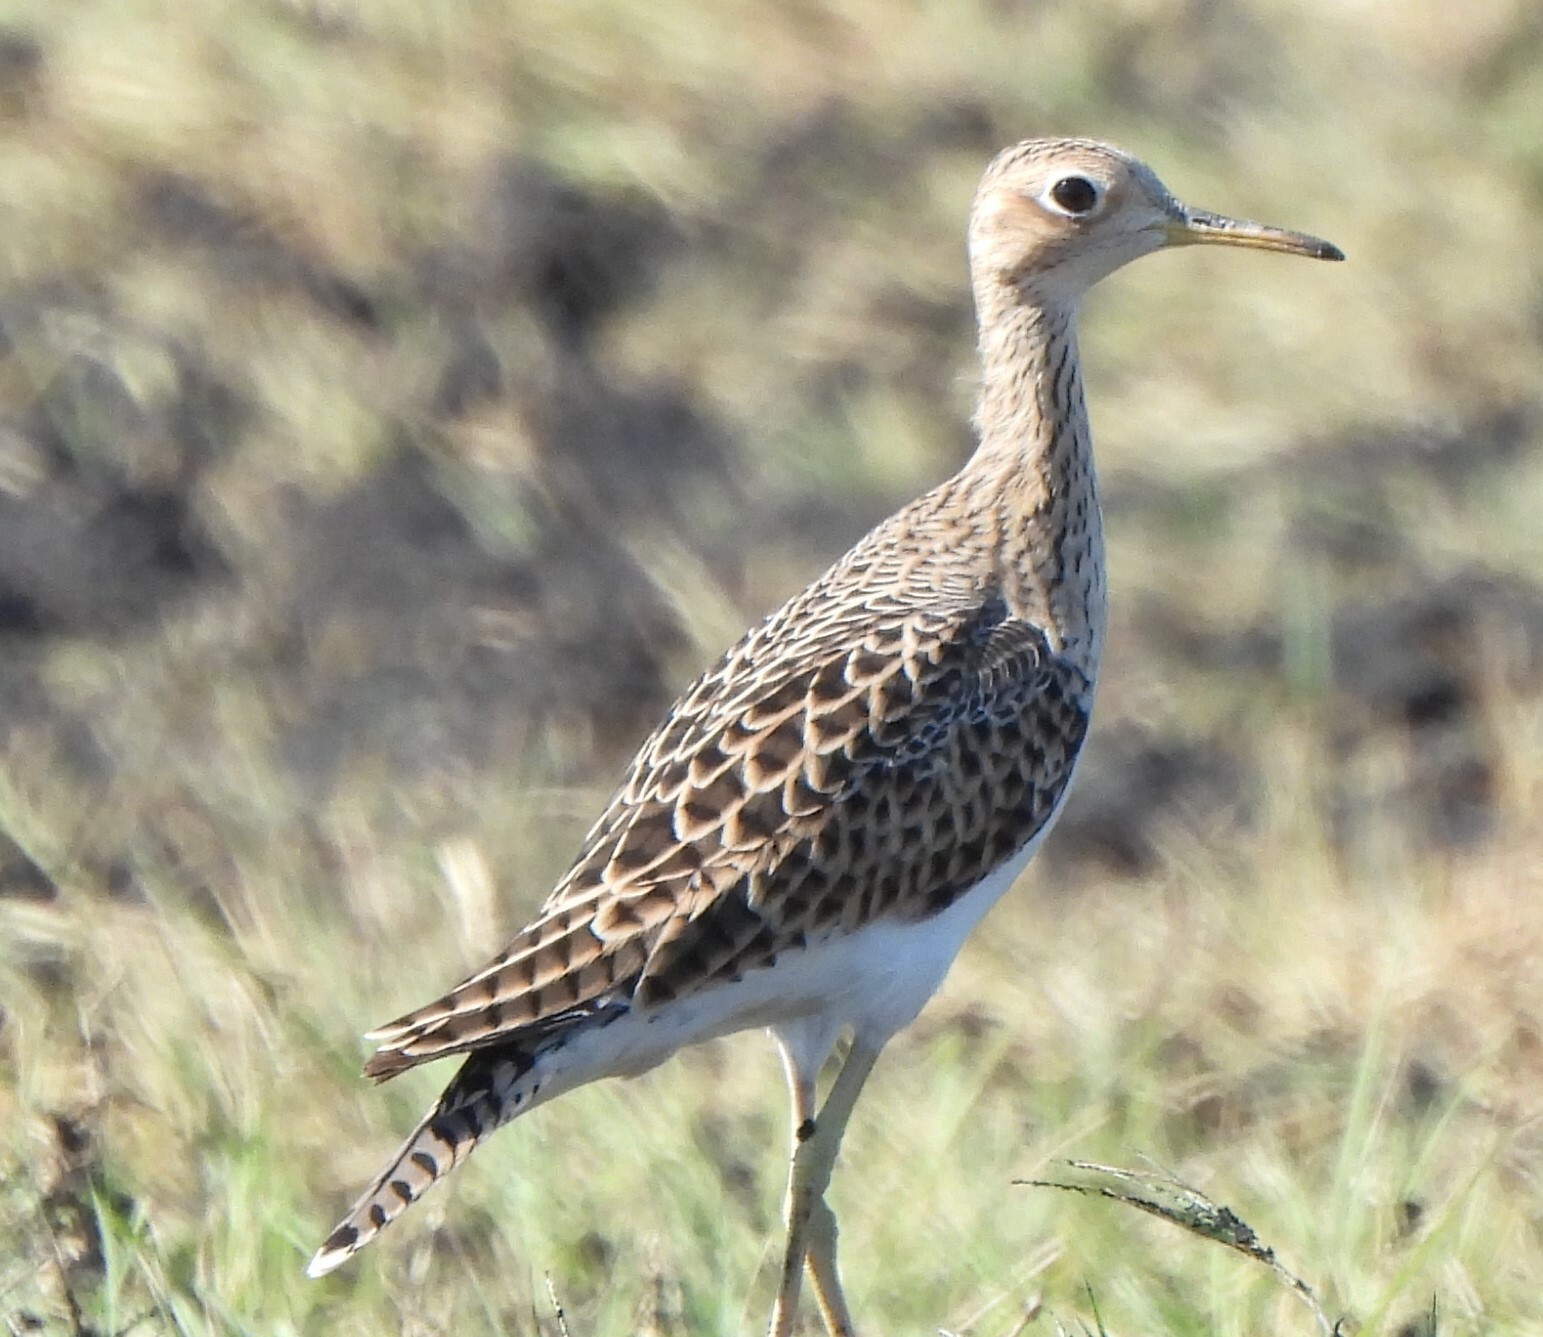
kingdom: Animalia
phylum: Chordata
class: Aves
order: Charadriiformes
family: Scolopacidae
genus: Bartramia
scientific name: Bartramia longicauda
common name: Upland sandpiper
